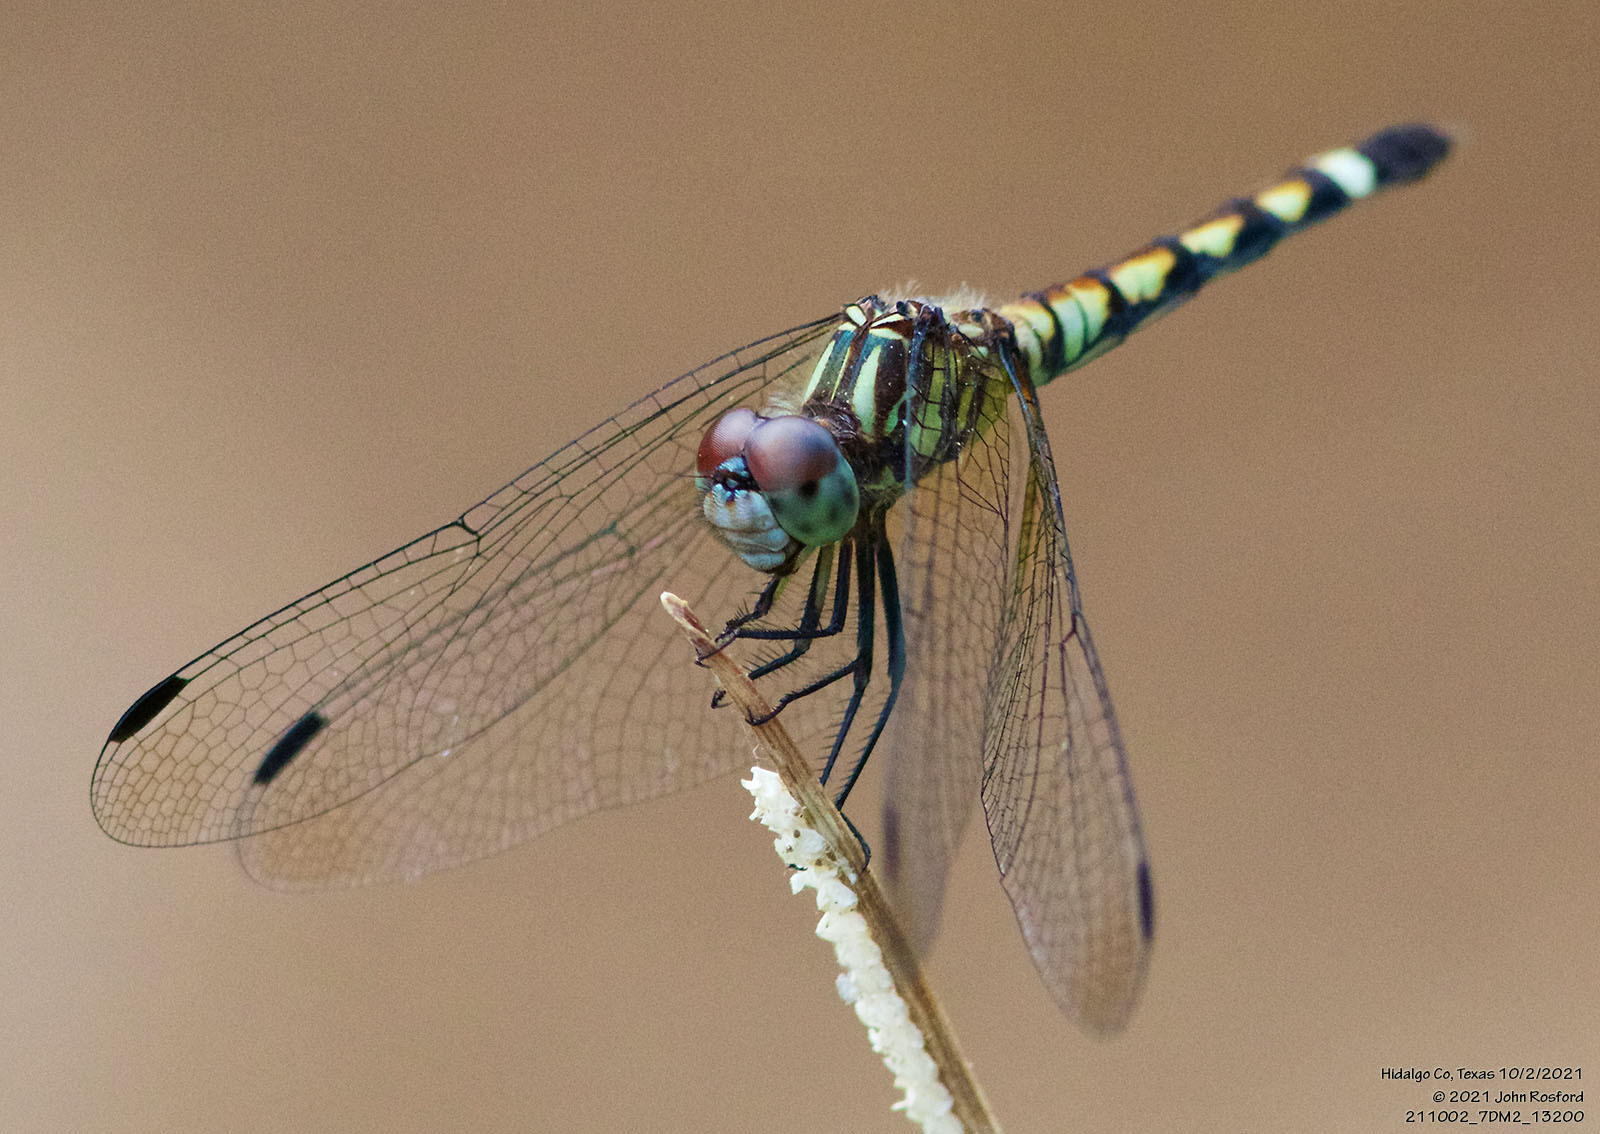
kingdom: Animalia
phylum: Arthropoda
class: Insecta
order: Odonata
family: Libellulidae
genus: Micrathyria
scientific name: Micrathyria hagenii
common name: Thornbush dasher
